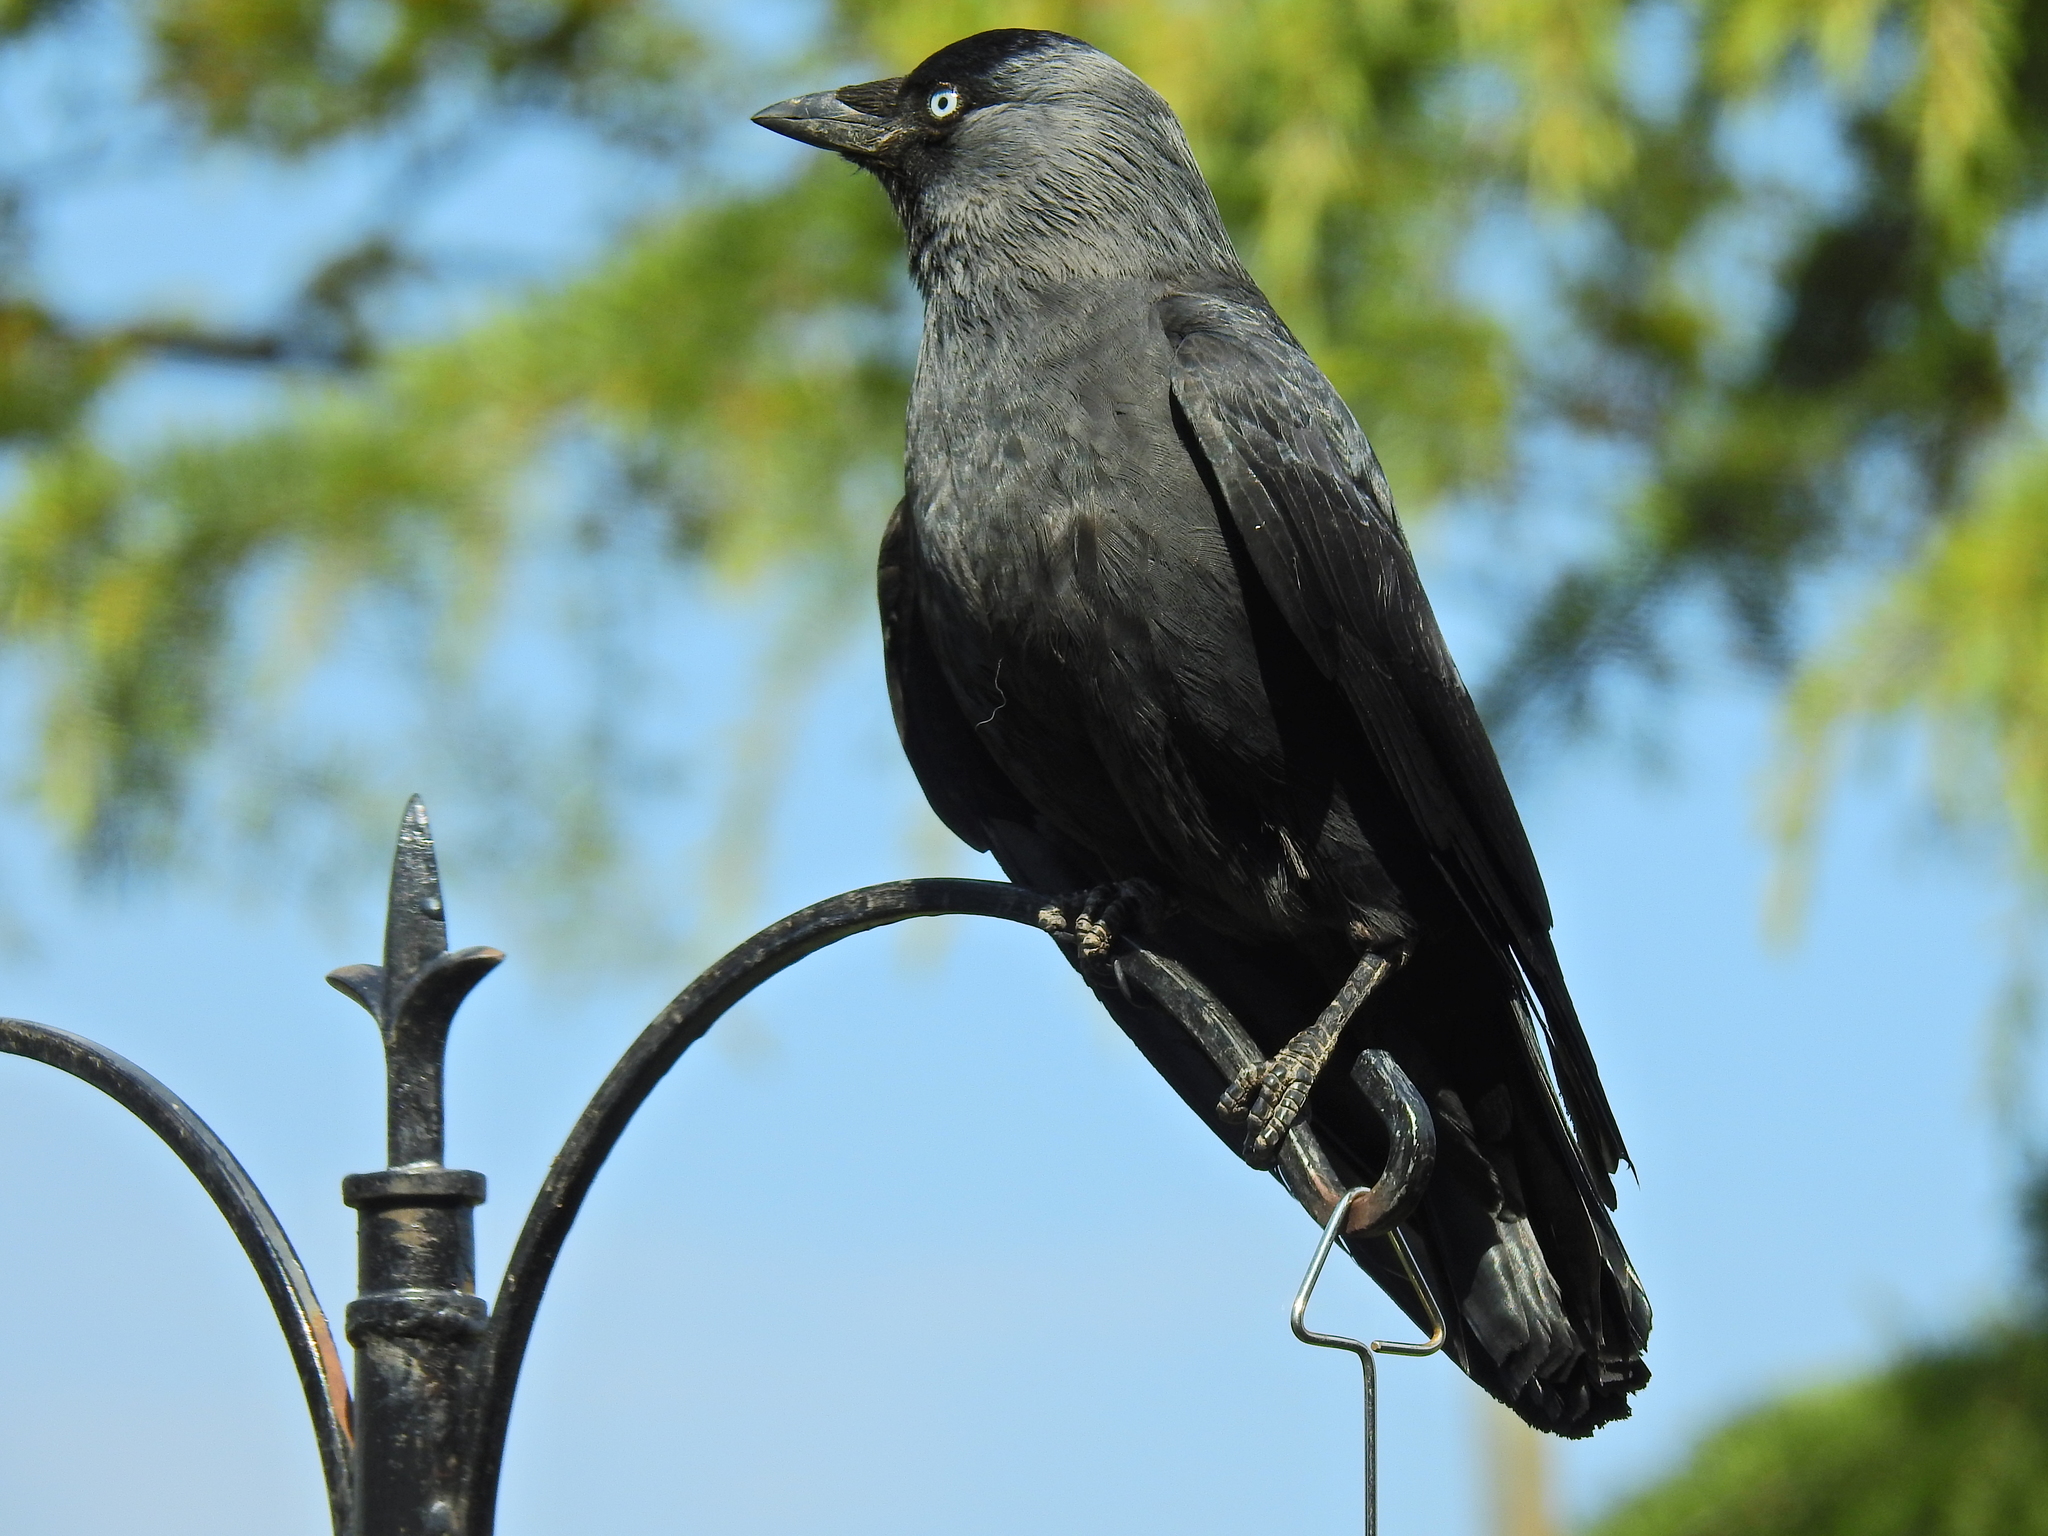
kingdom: Animalia
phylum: Chordata
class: Aves
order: Passeriformes
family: Corvidae
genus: Coloeus
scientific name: Coloeus monedula
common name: Western jackdaw
